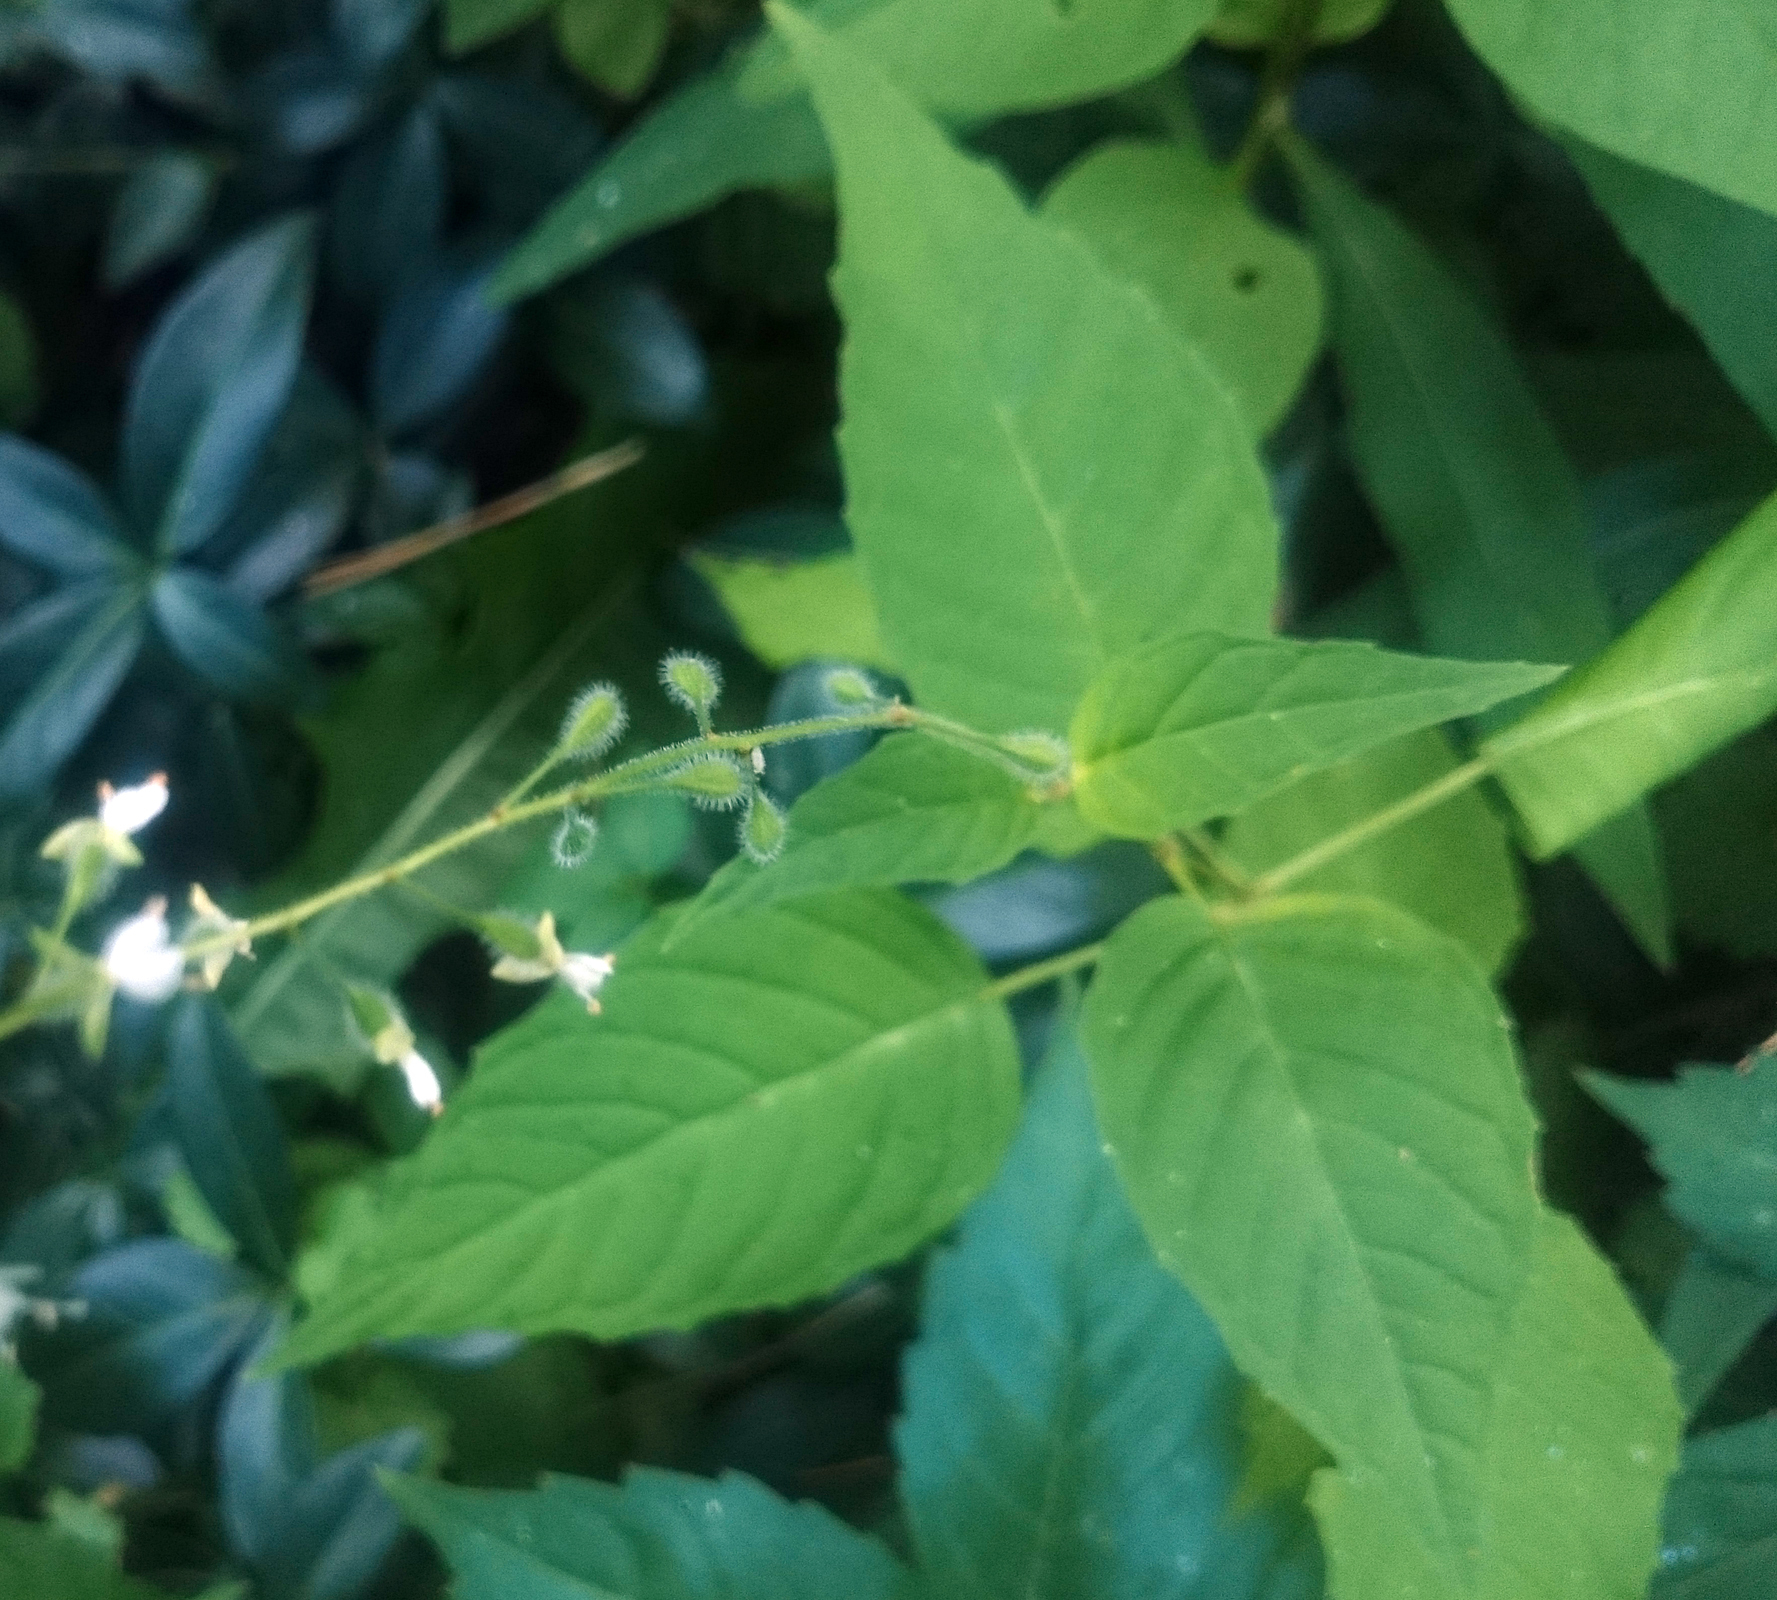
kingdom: Plantae
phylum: Tracheophyta
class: Magnoliopsida
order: Myrtales
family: Onagraceae
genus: Circaea
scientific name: Circaea canadensis
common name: Broad-leaved enchanter's nightshade
